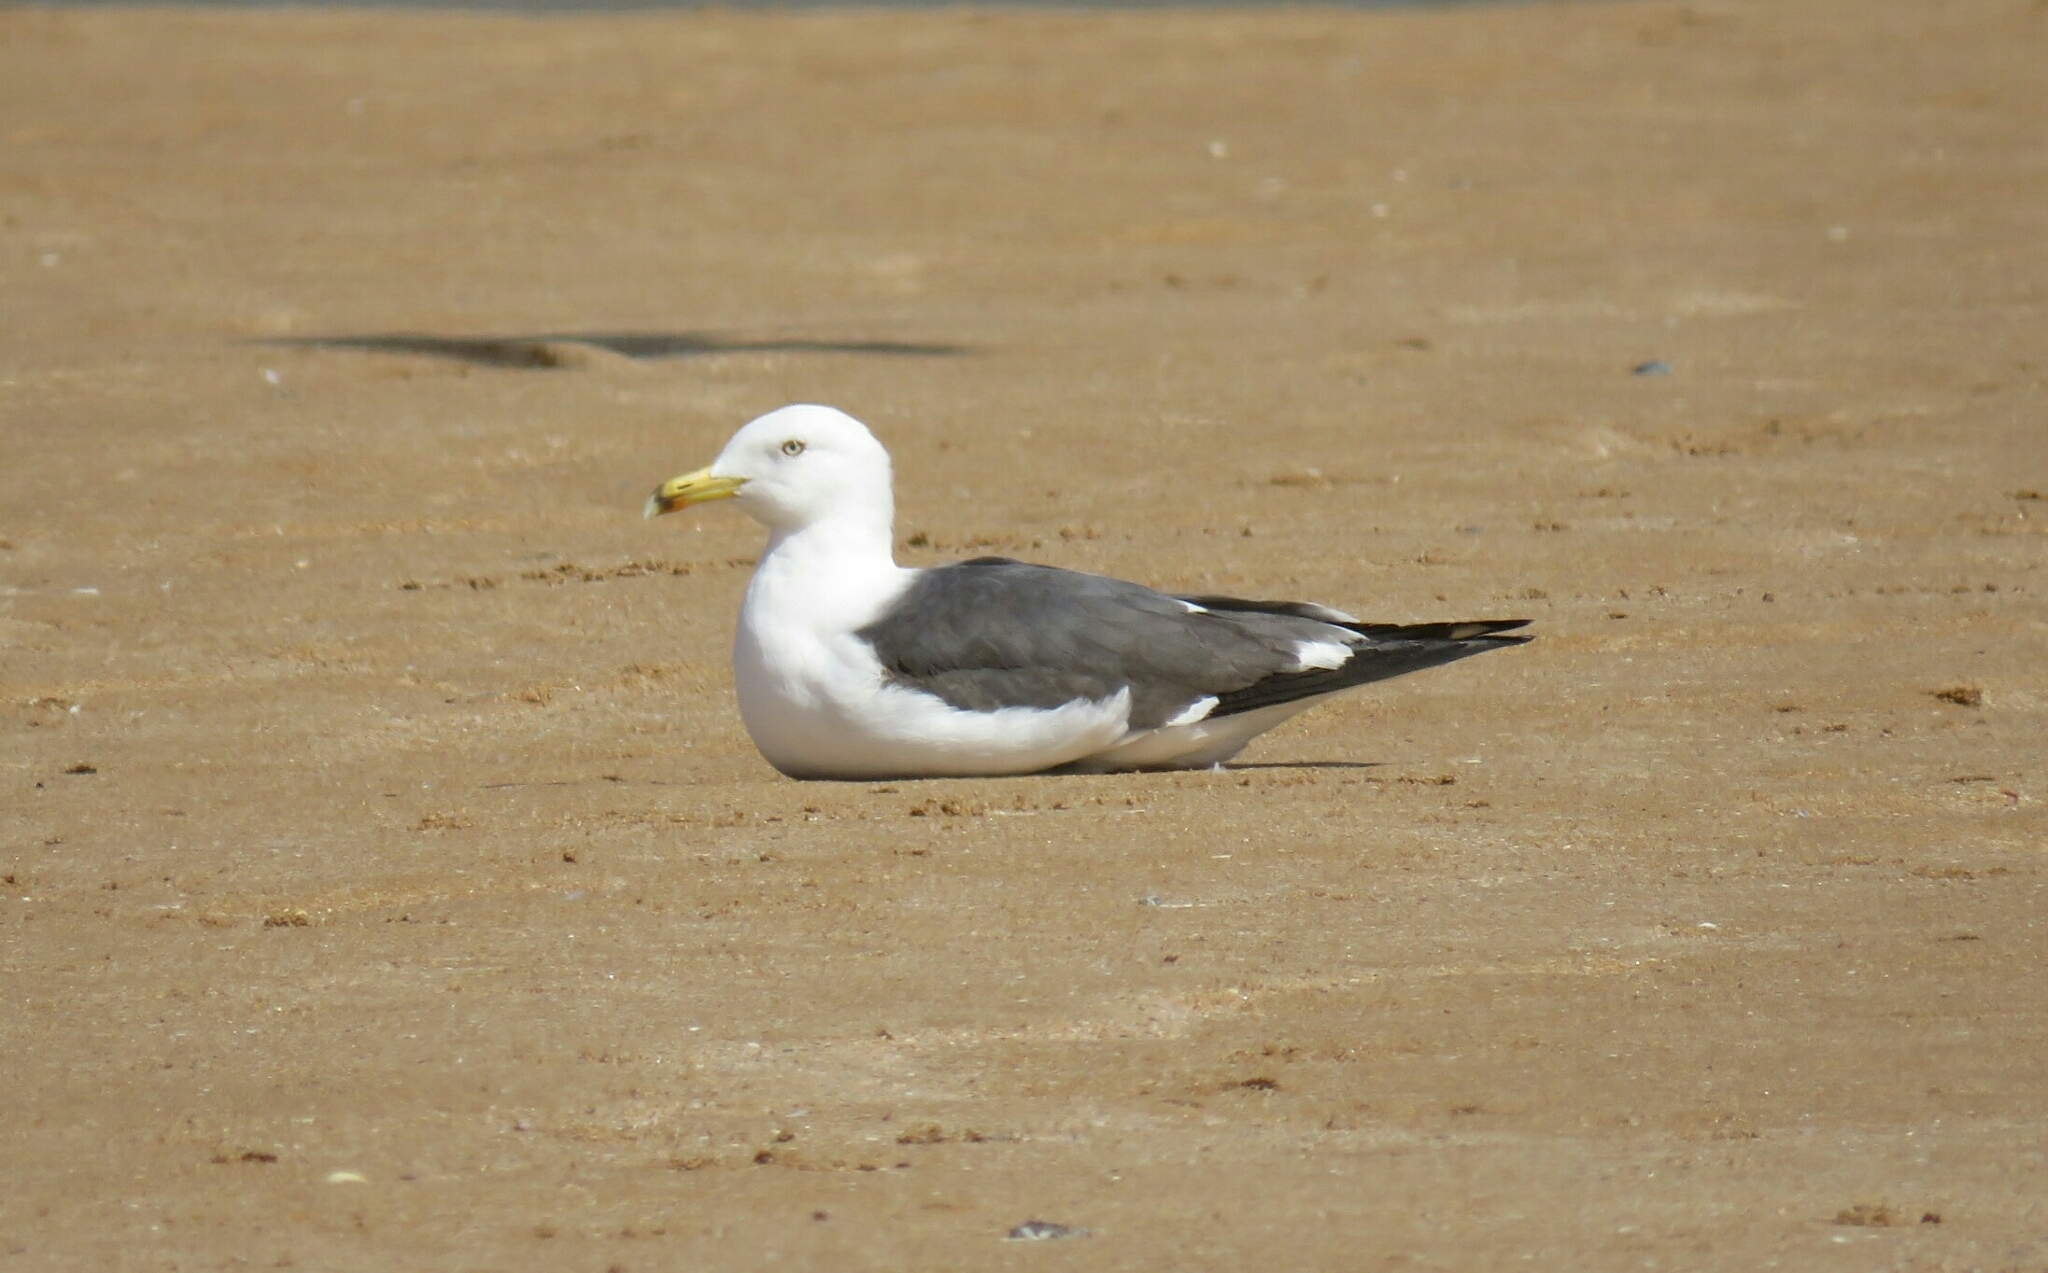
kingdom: Animalia
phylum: Chordata
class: Aves
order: Charadriiformes
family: Laridae
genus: Larus
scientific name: Larus fuscus
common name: Lesser black-backed gull
